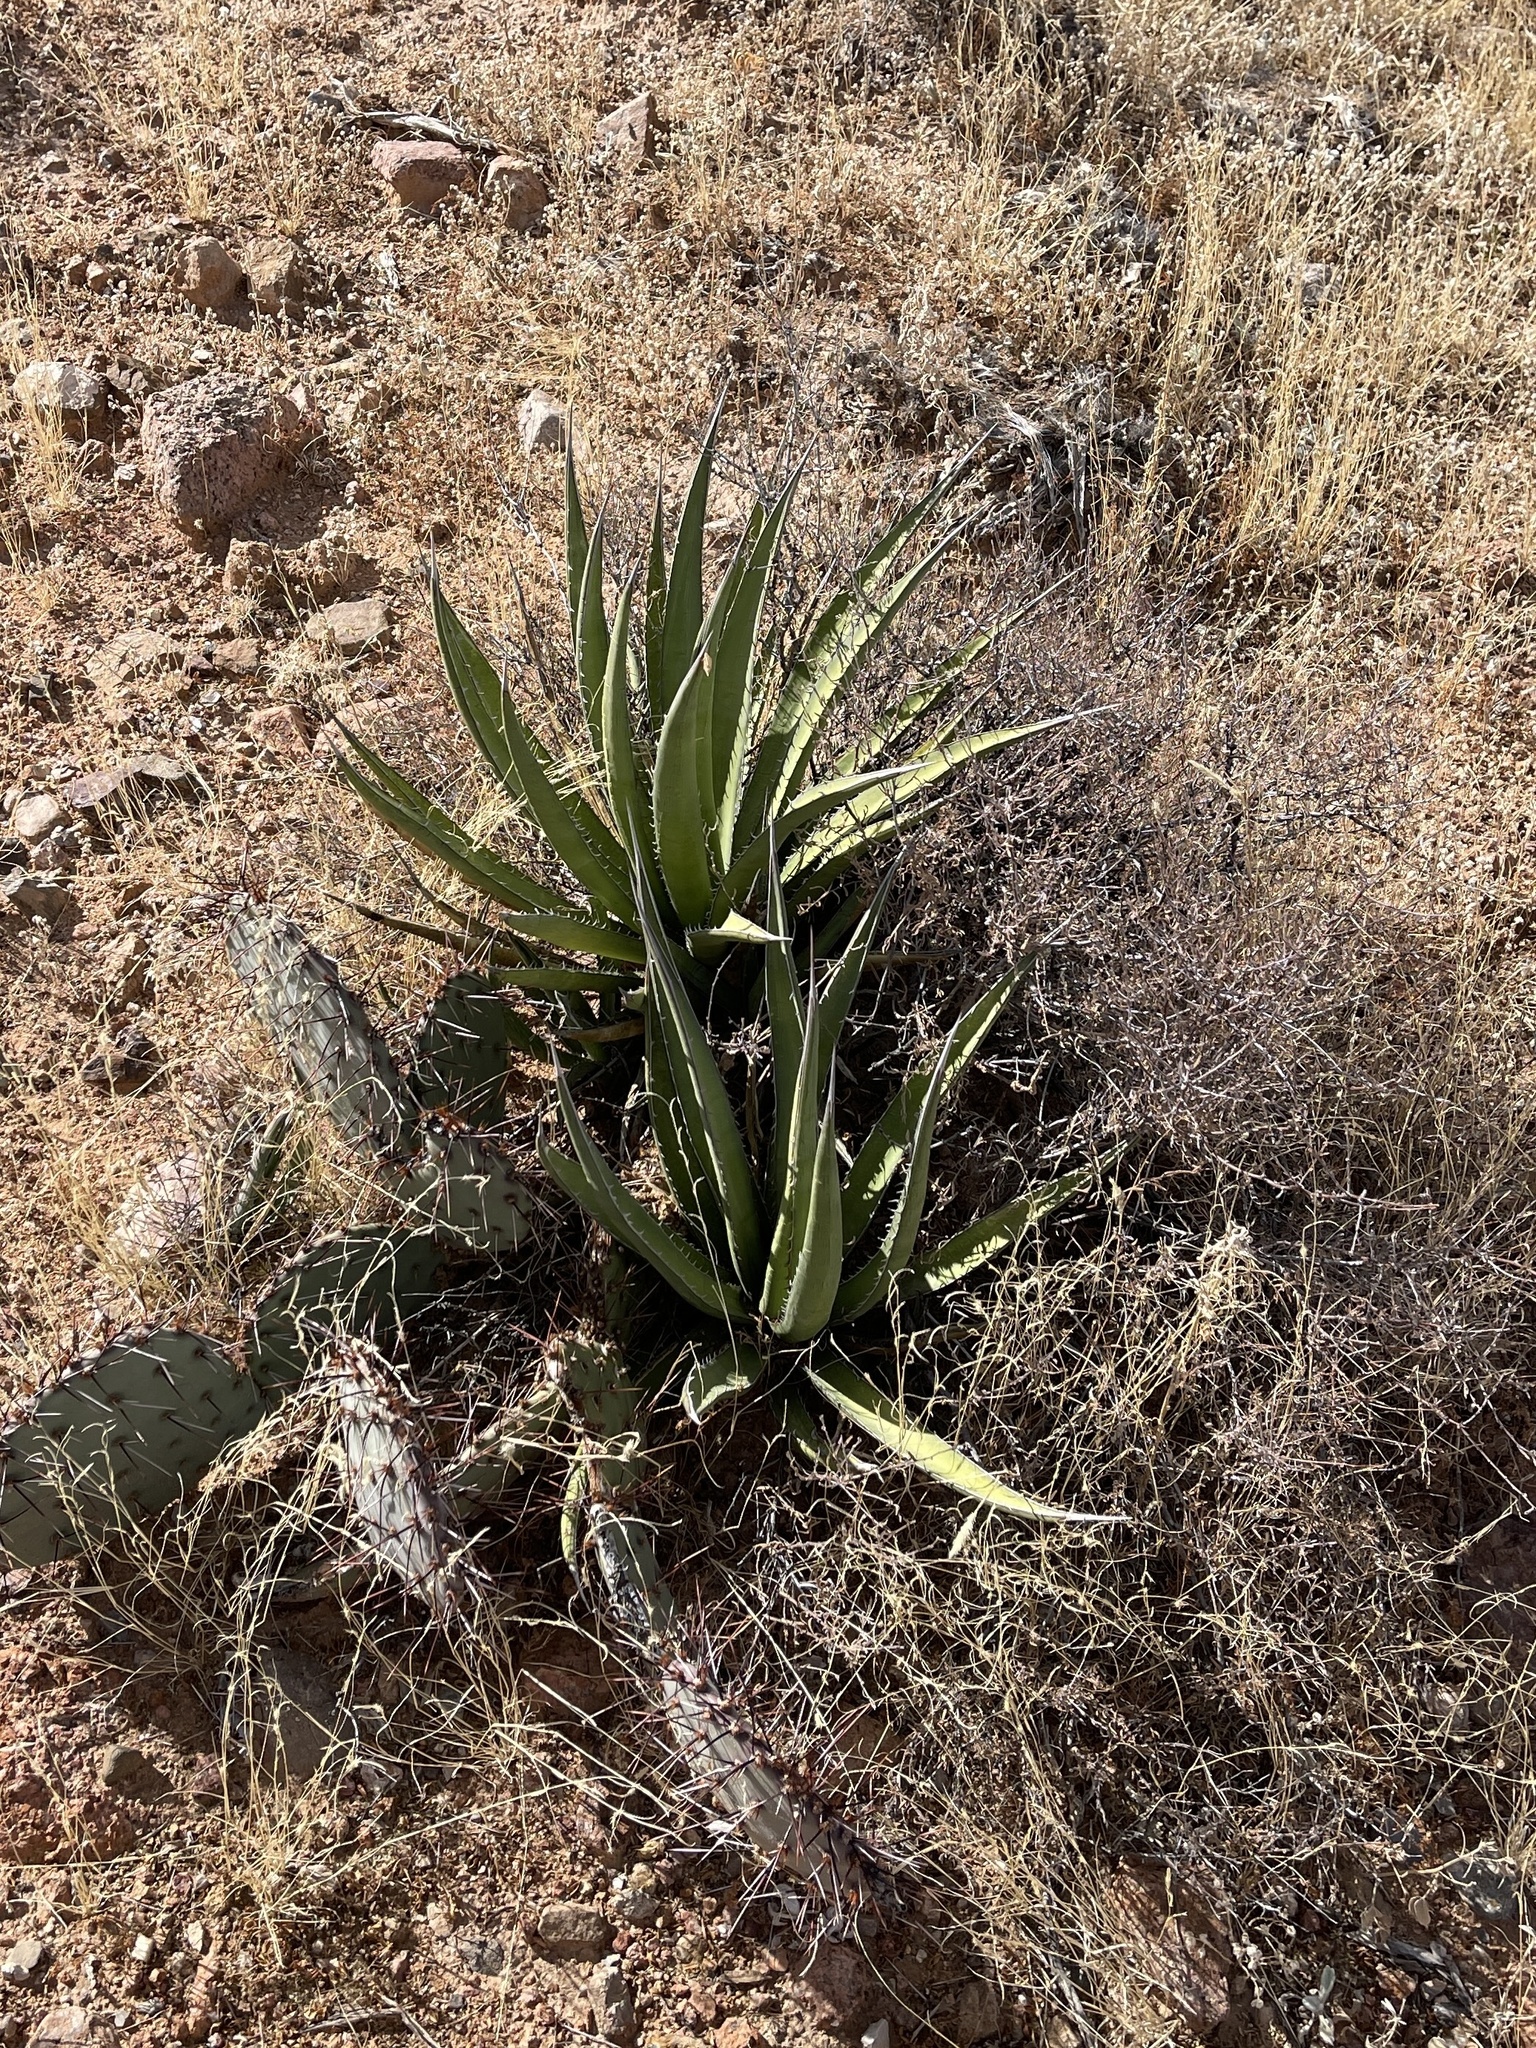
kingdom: Plantae
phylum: Tracheophyta
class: Liliopsida
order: Asparagales
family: Asparagaceae
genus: Agave
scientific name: Agave lechuguilla
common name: Lecheguilla agave
